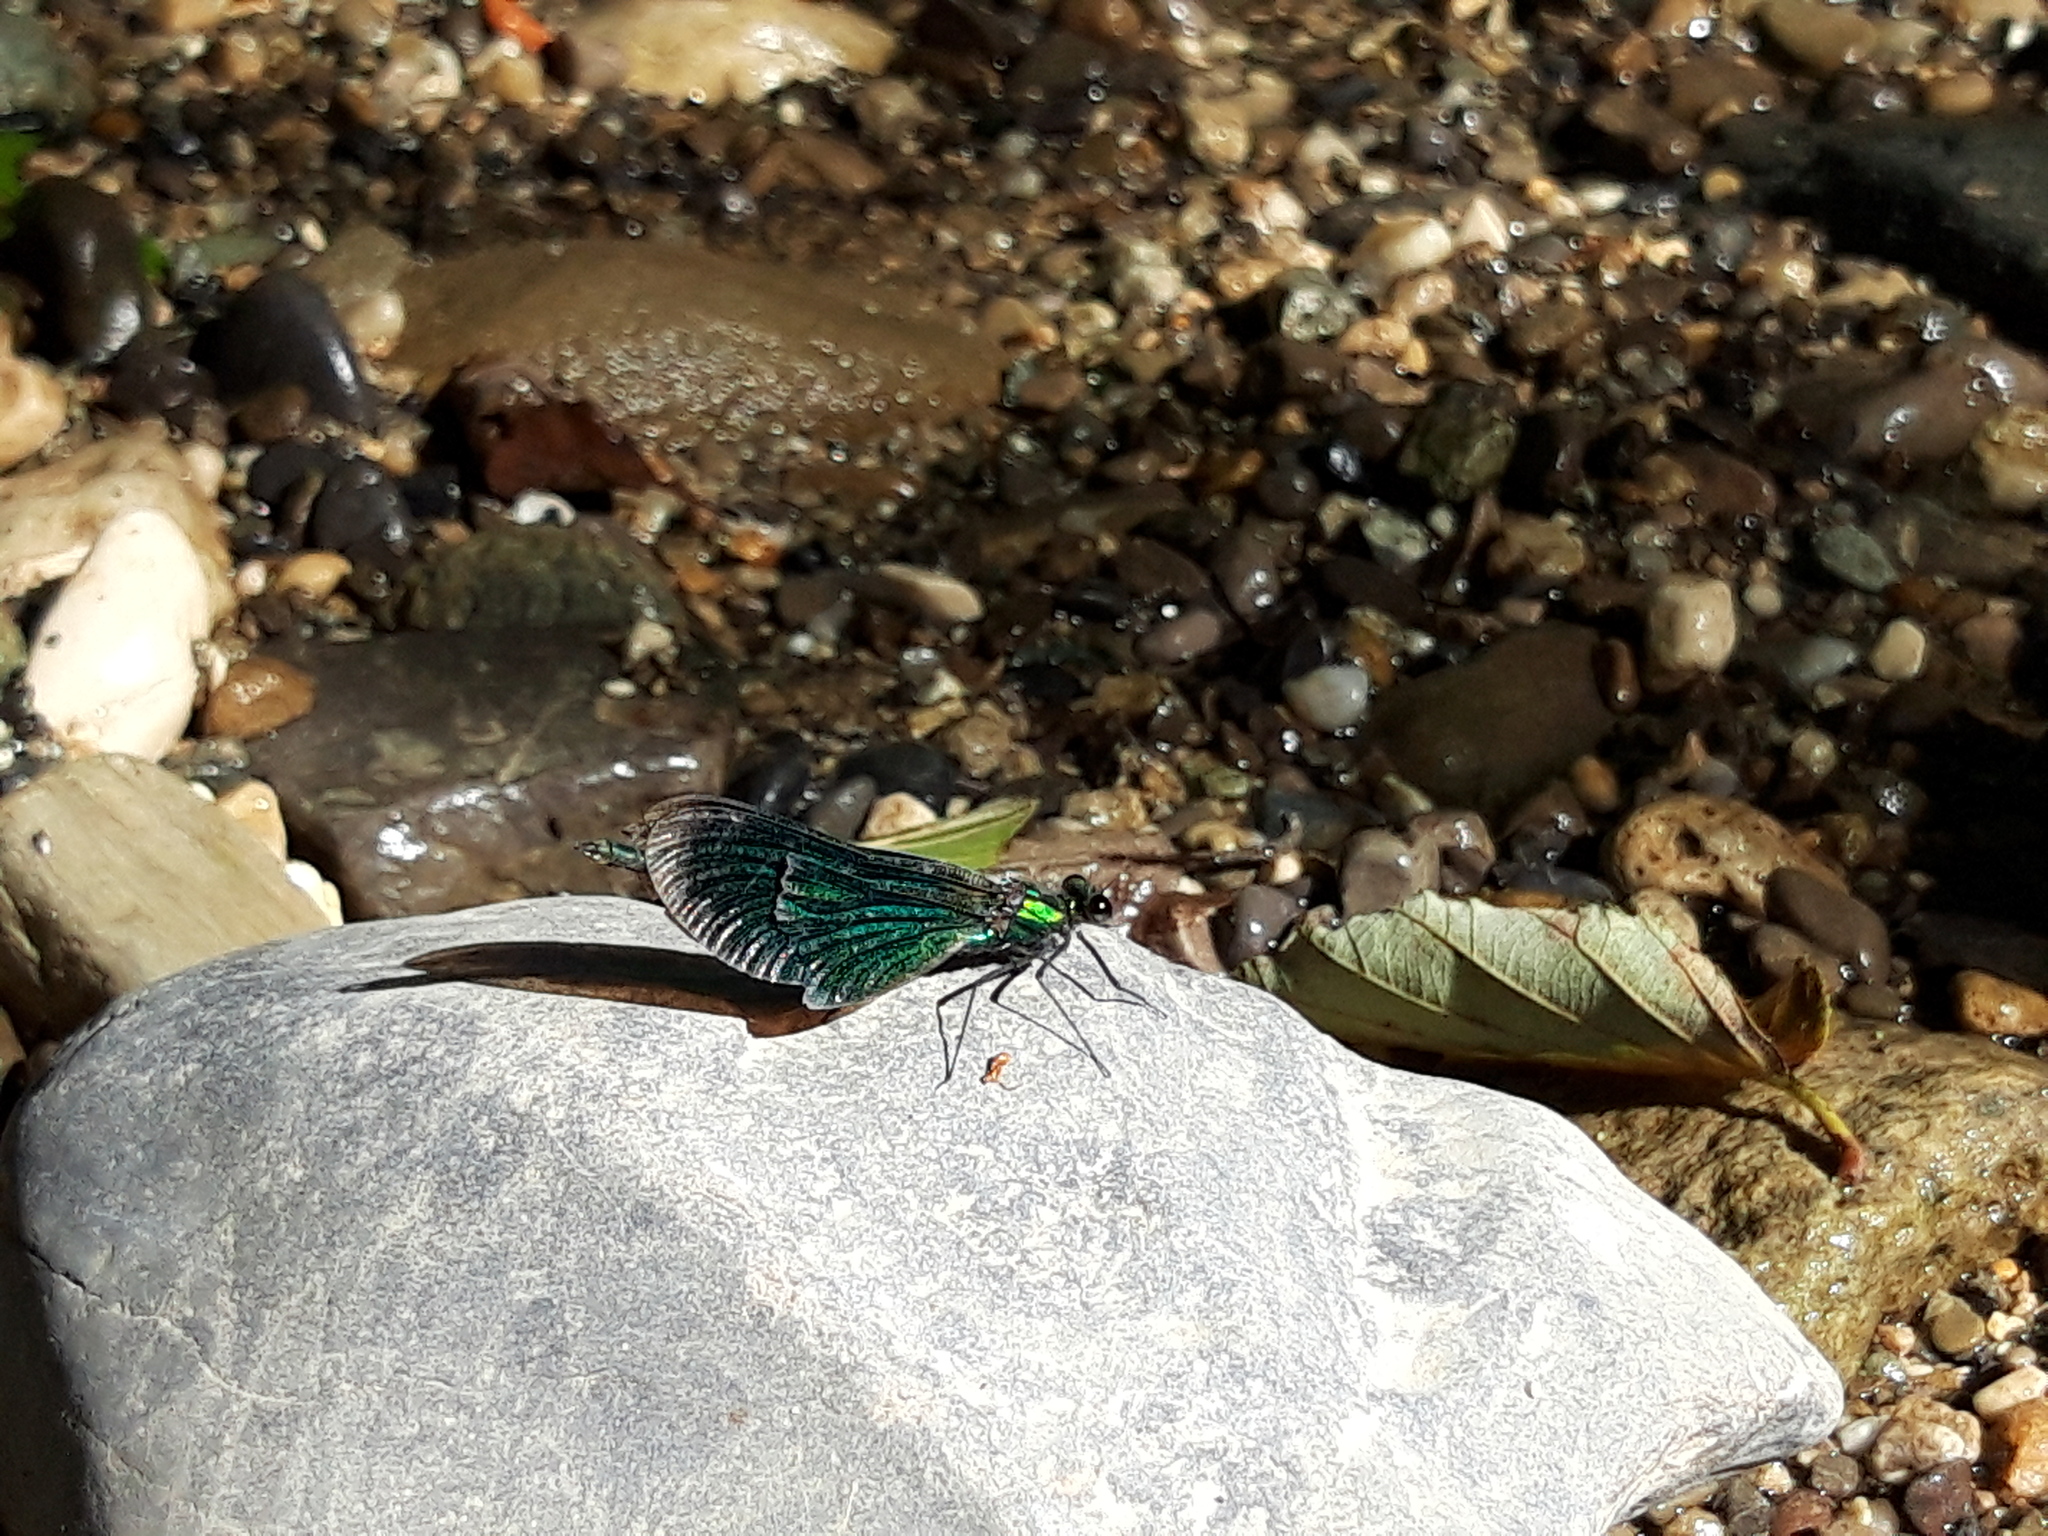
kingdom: Animalia
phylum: Arthropoda
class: Insecta
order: Odonata
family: Calopterygidae
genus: Calopteryx
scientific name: Calopteryx virgo
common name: Beautiful demoiselle
